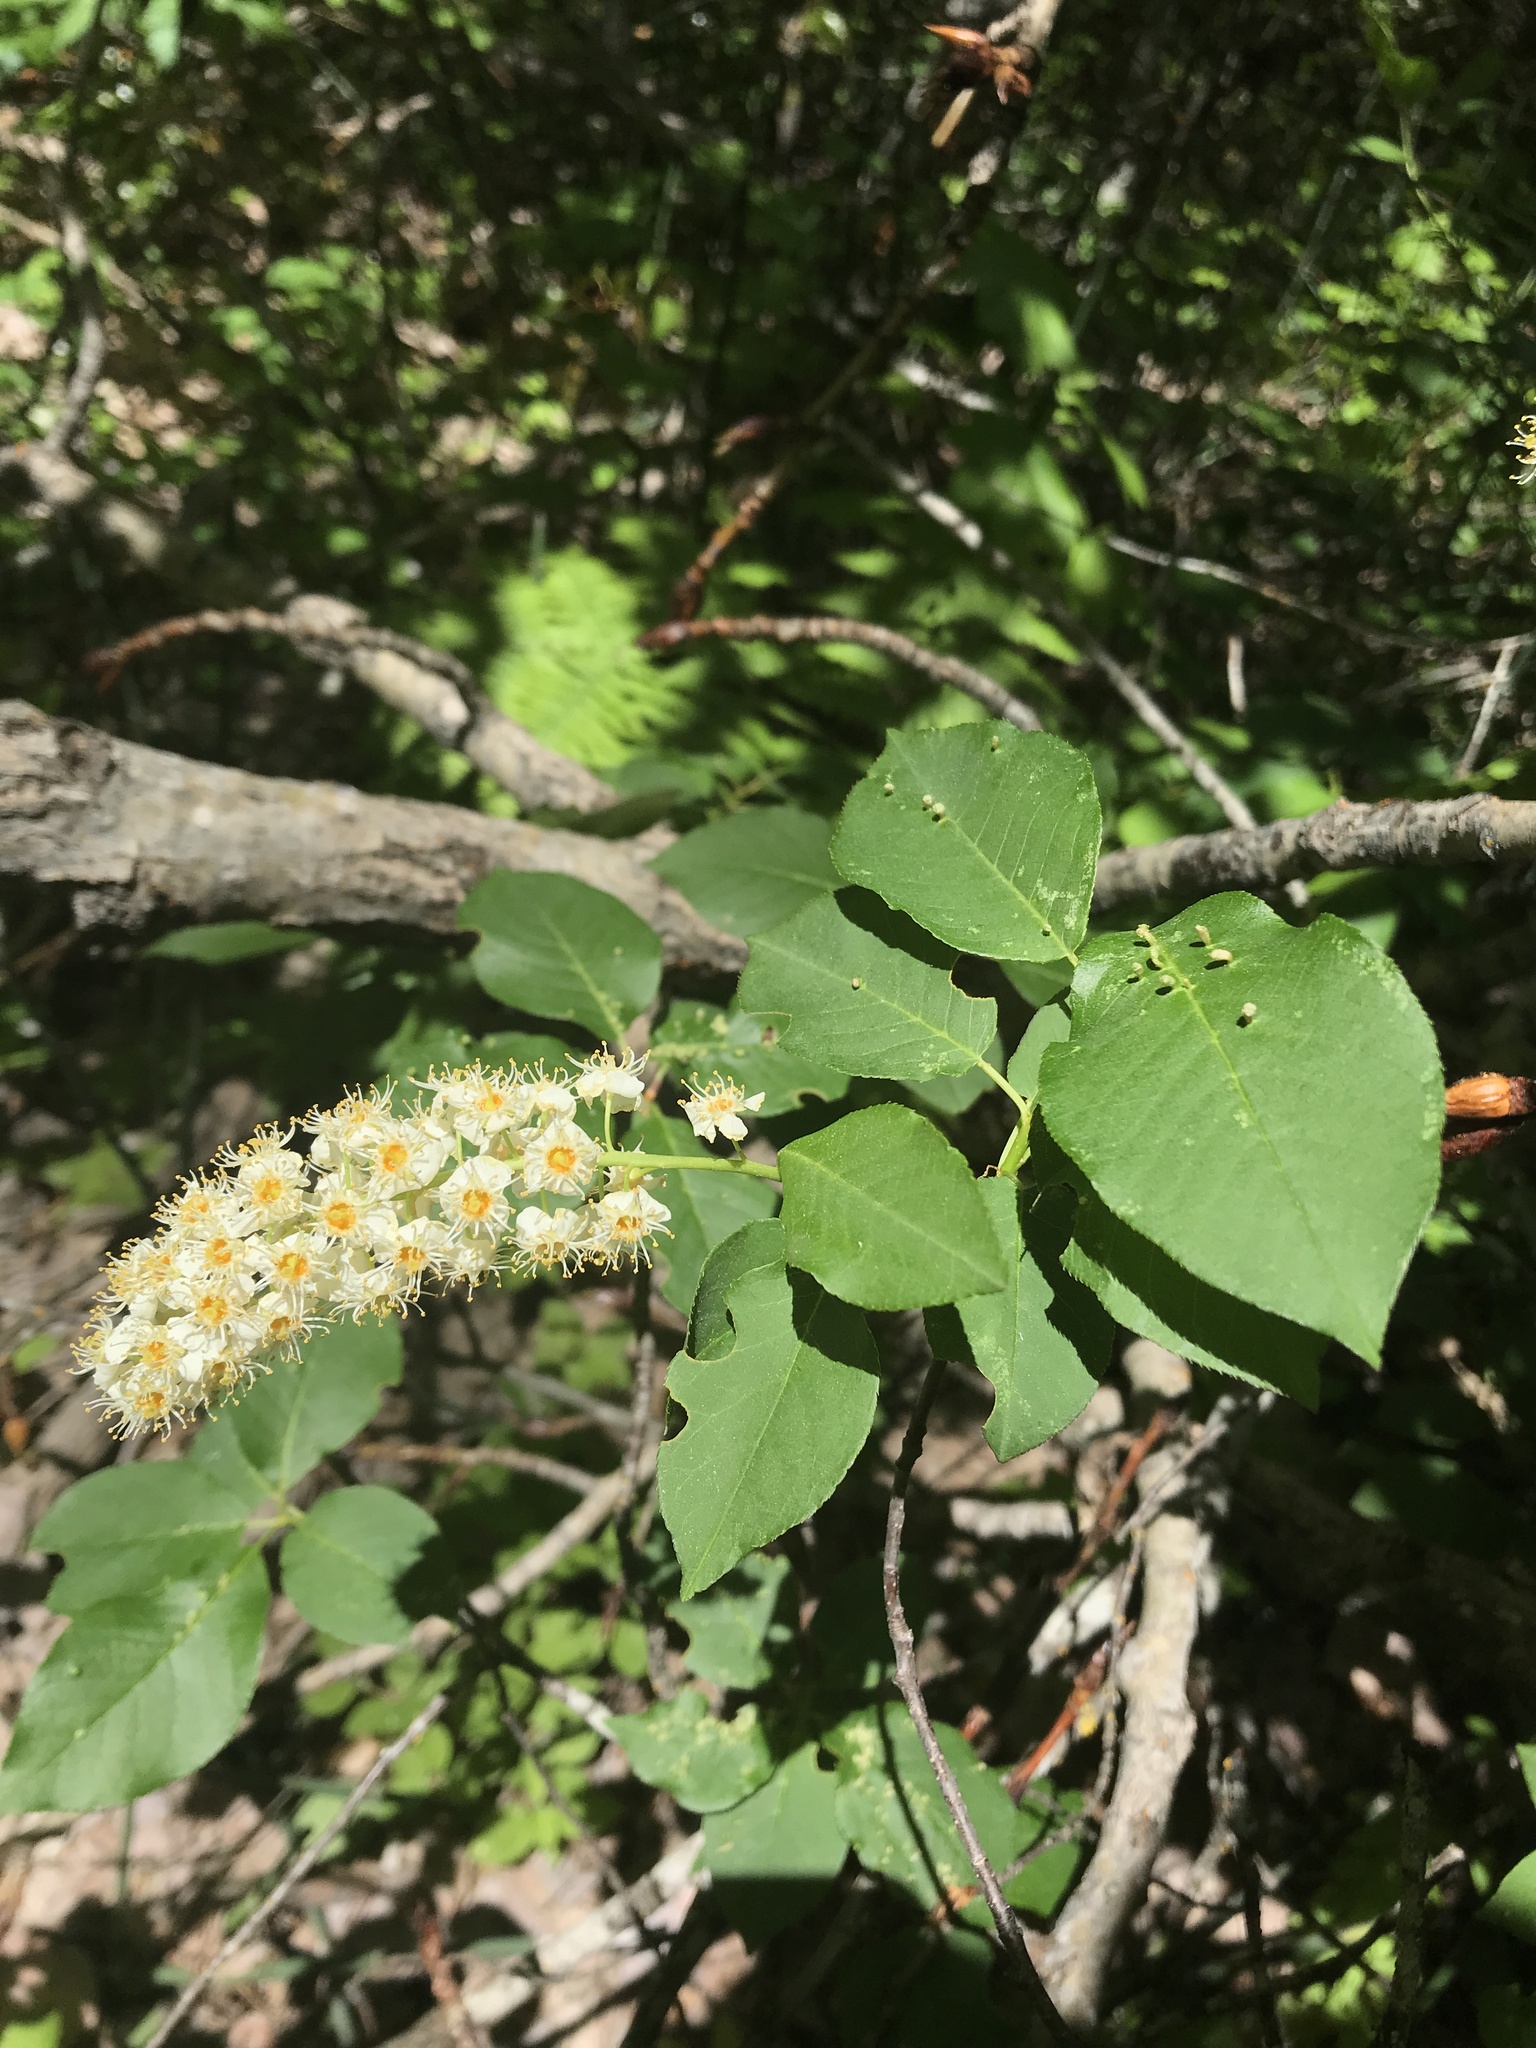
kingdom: Plantae
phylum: Tracheophyta
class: Magnoliopsida
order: Rosales
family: Rosaceae
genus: Prunus
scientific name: Prunus virginiana
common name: Chokecherry
